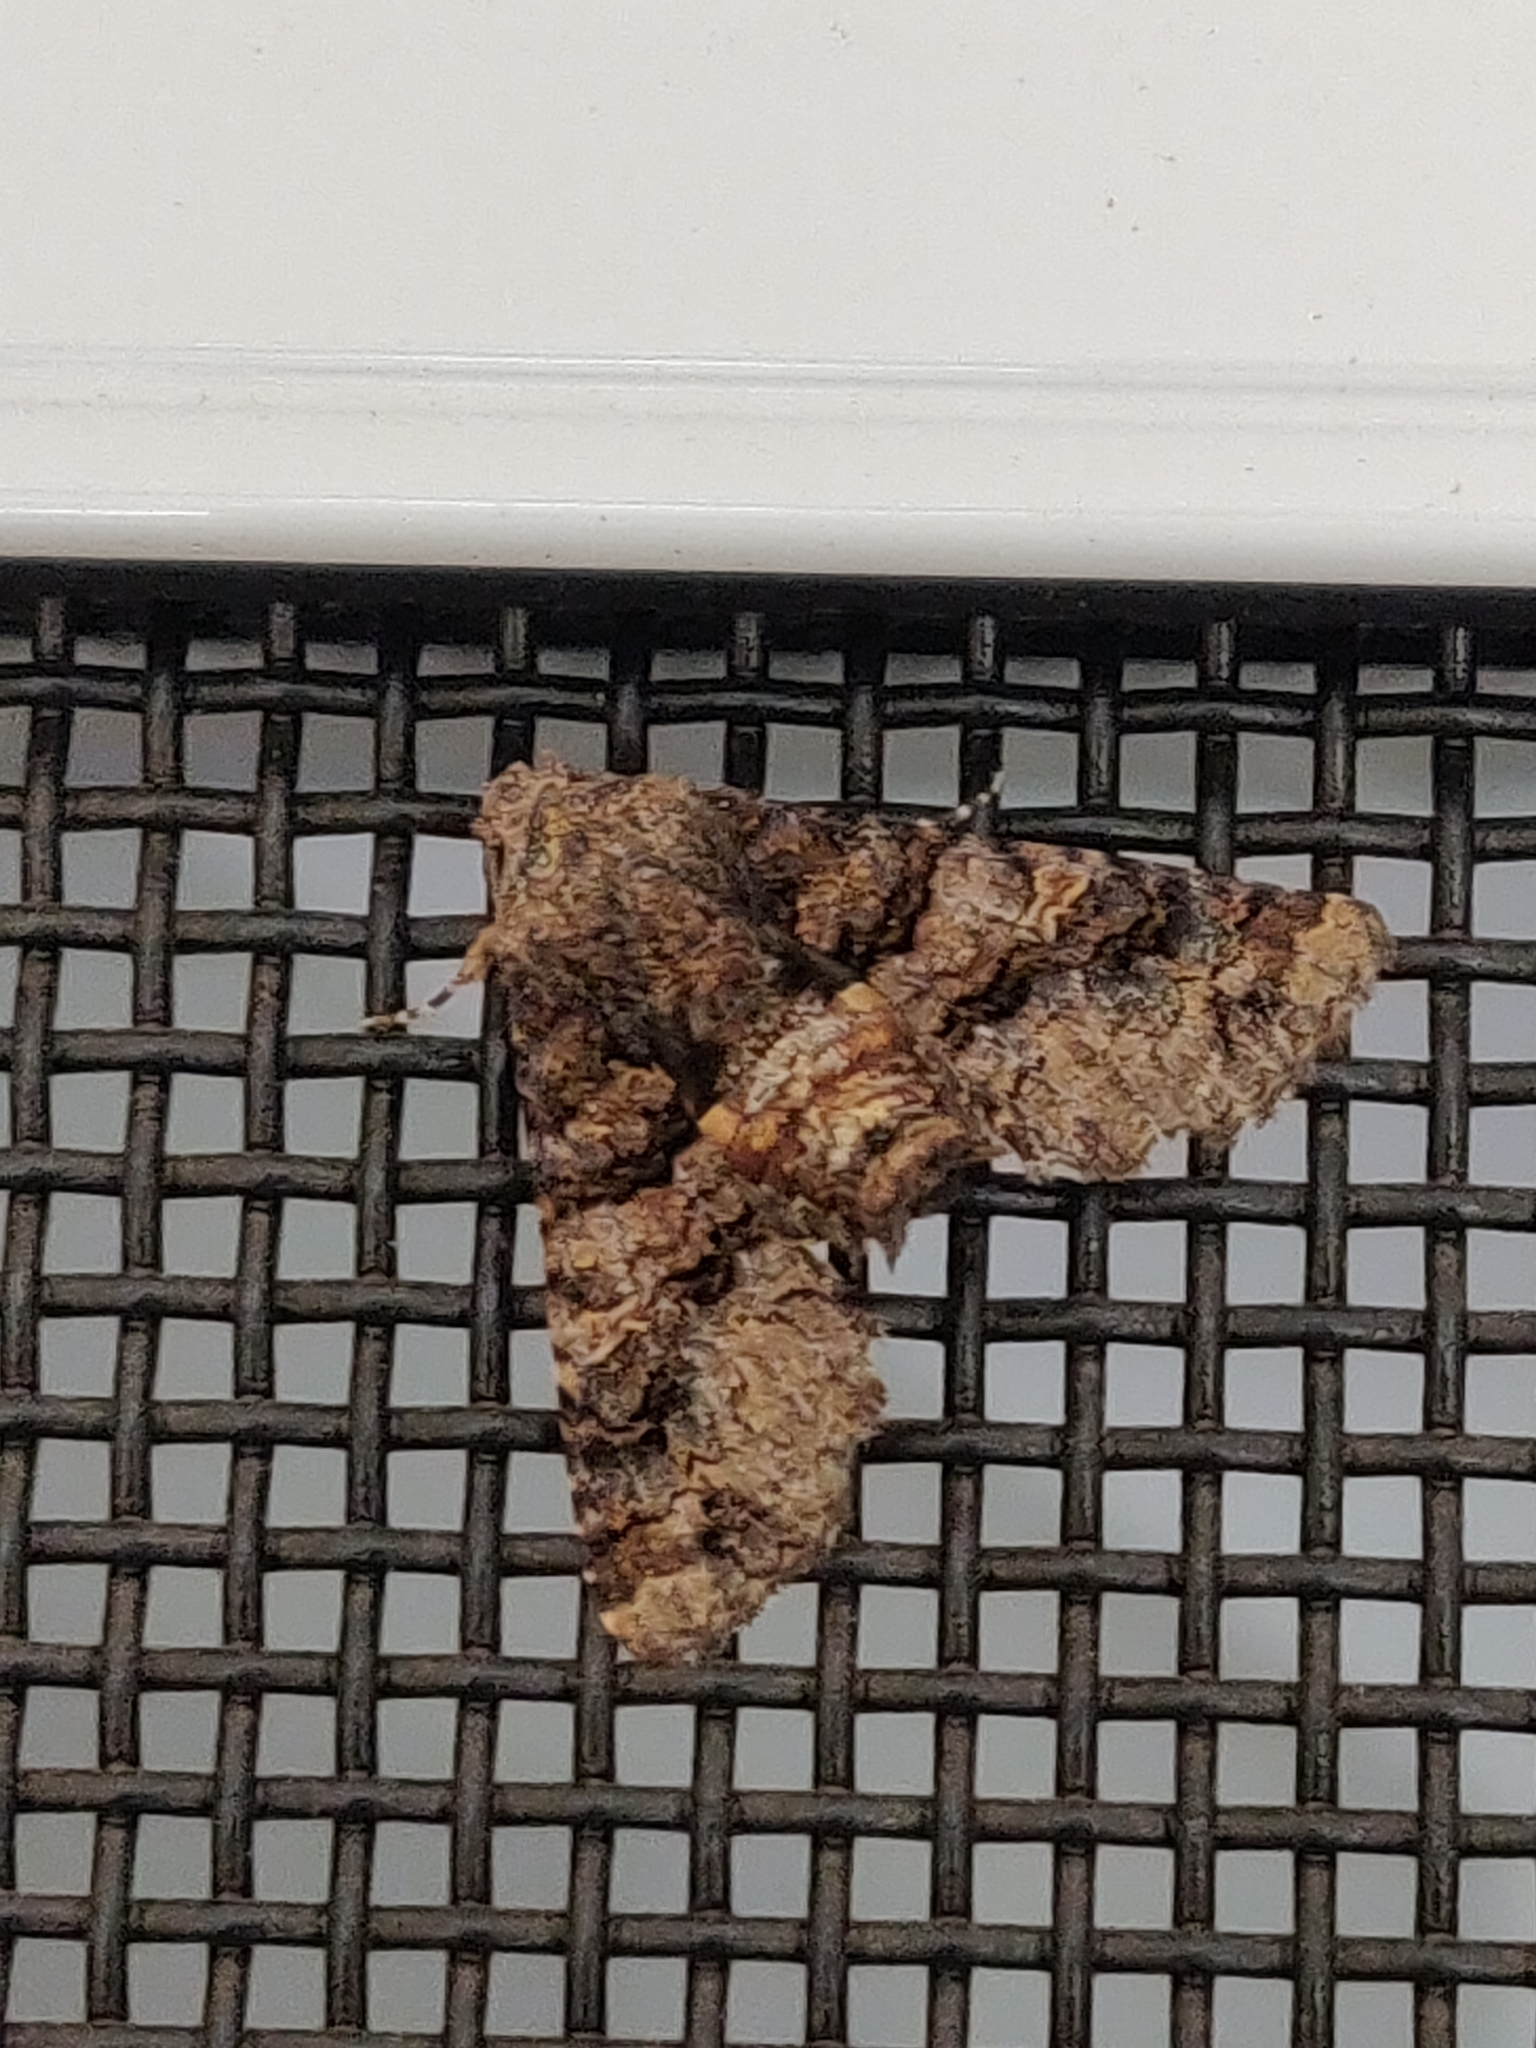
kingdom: Animalia
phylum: Arthropoda
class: Insecta
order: Lepidoptera
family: Euteliidae
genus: Pataeta
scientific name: Pataeta carbo
